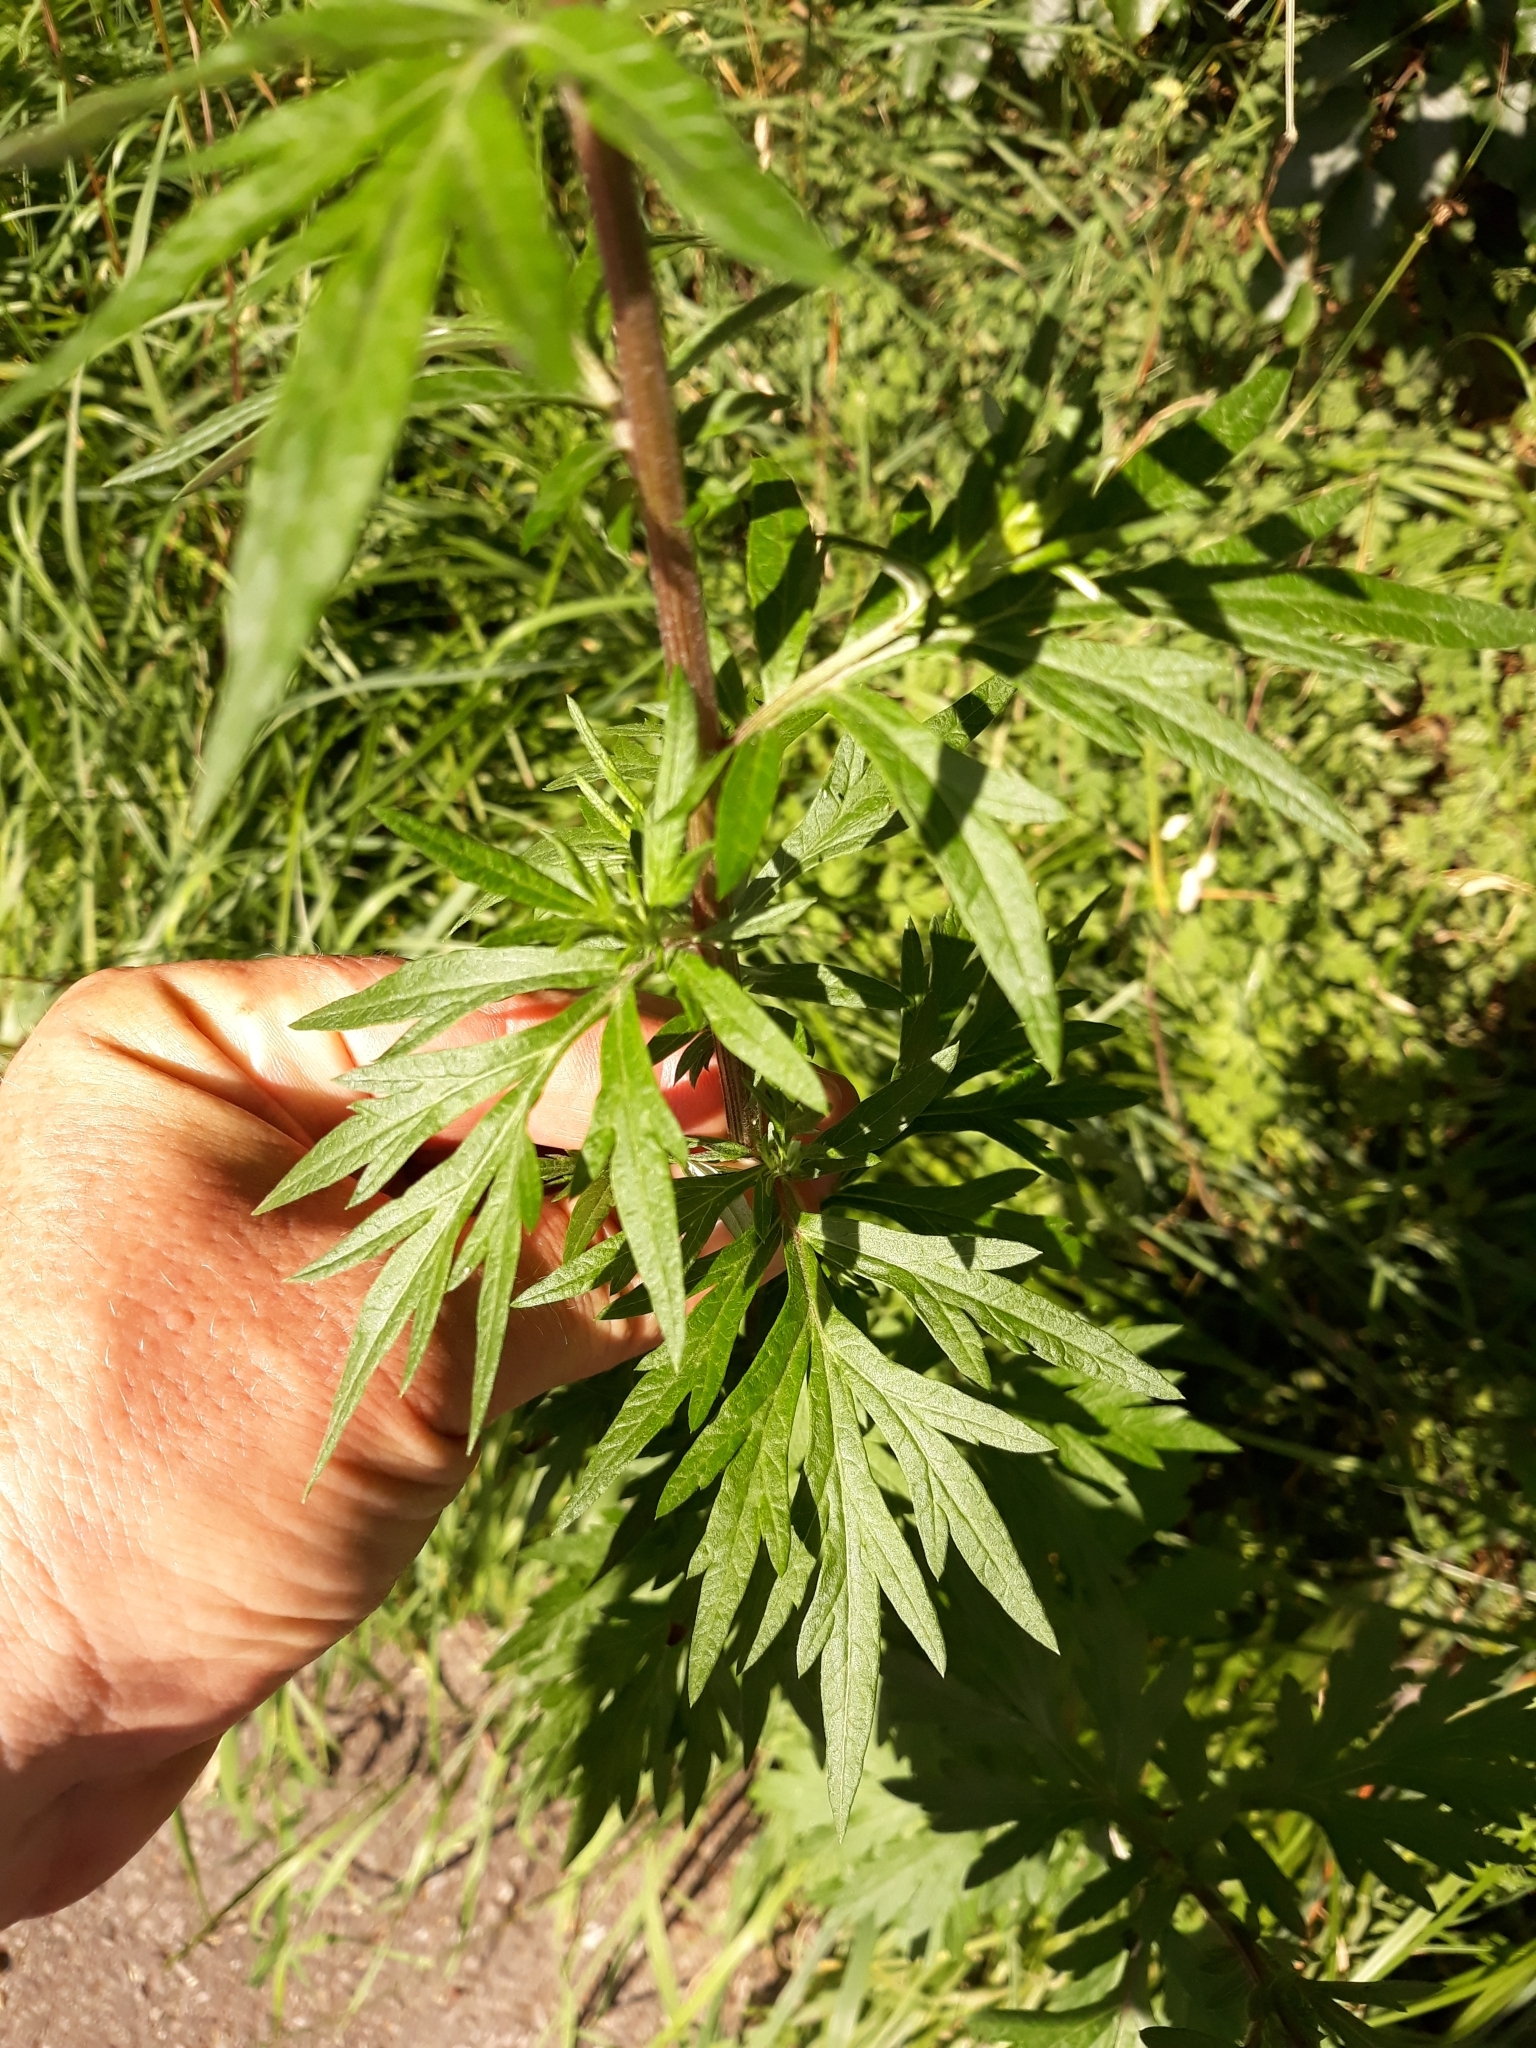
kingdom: Plantae
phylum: Tracheophyta
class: Magnoliopsida
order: Asterales
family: Asteraceae
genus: Artemisia
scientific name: Artemisia vulgaris
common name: Mugwort
